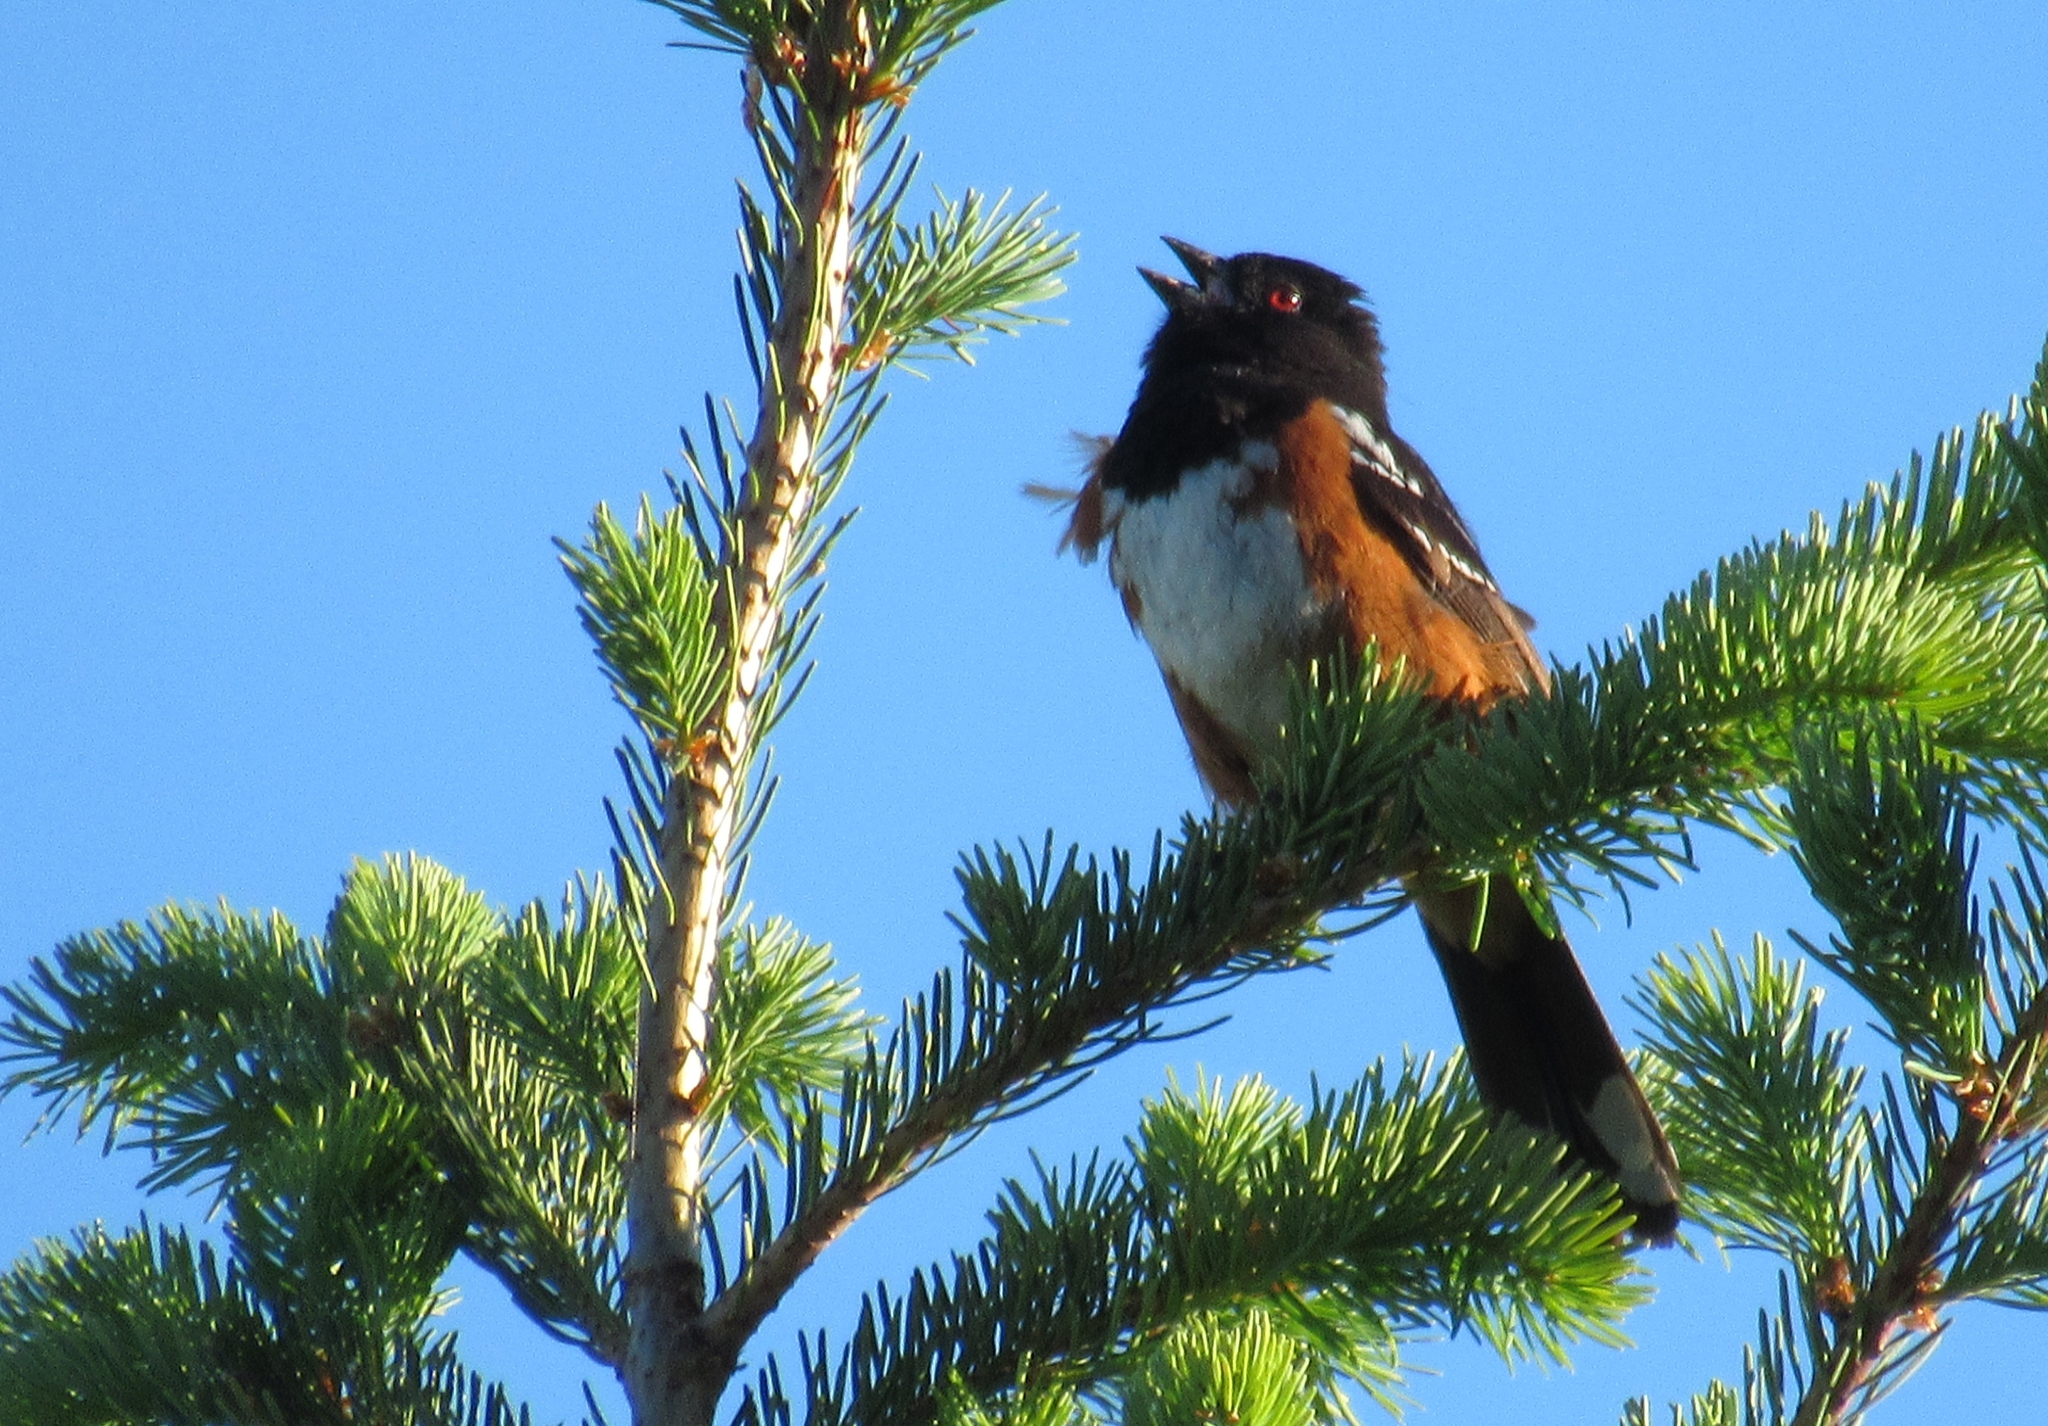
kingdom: Animalia
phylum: Chordata
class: Aves
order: Passeriformes
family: Passerellidae
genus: Pipilo
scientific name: Pipilo maculatus
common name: Spotted towhee
